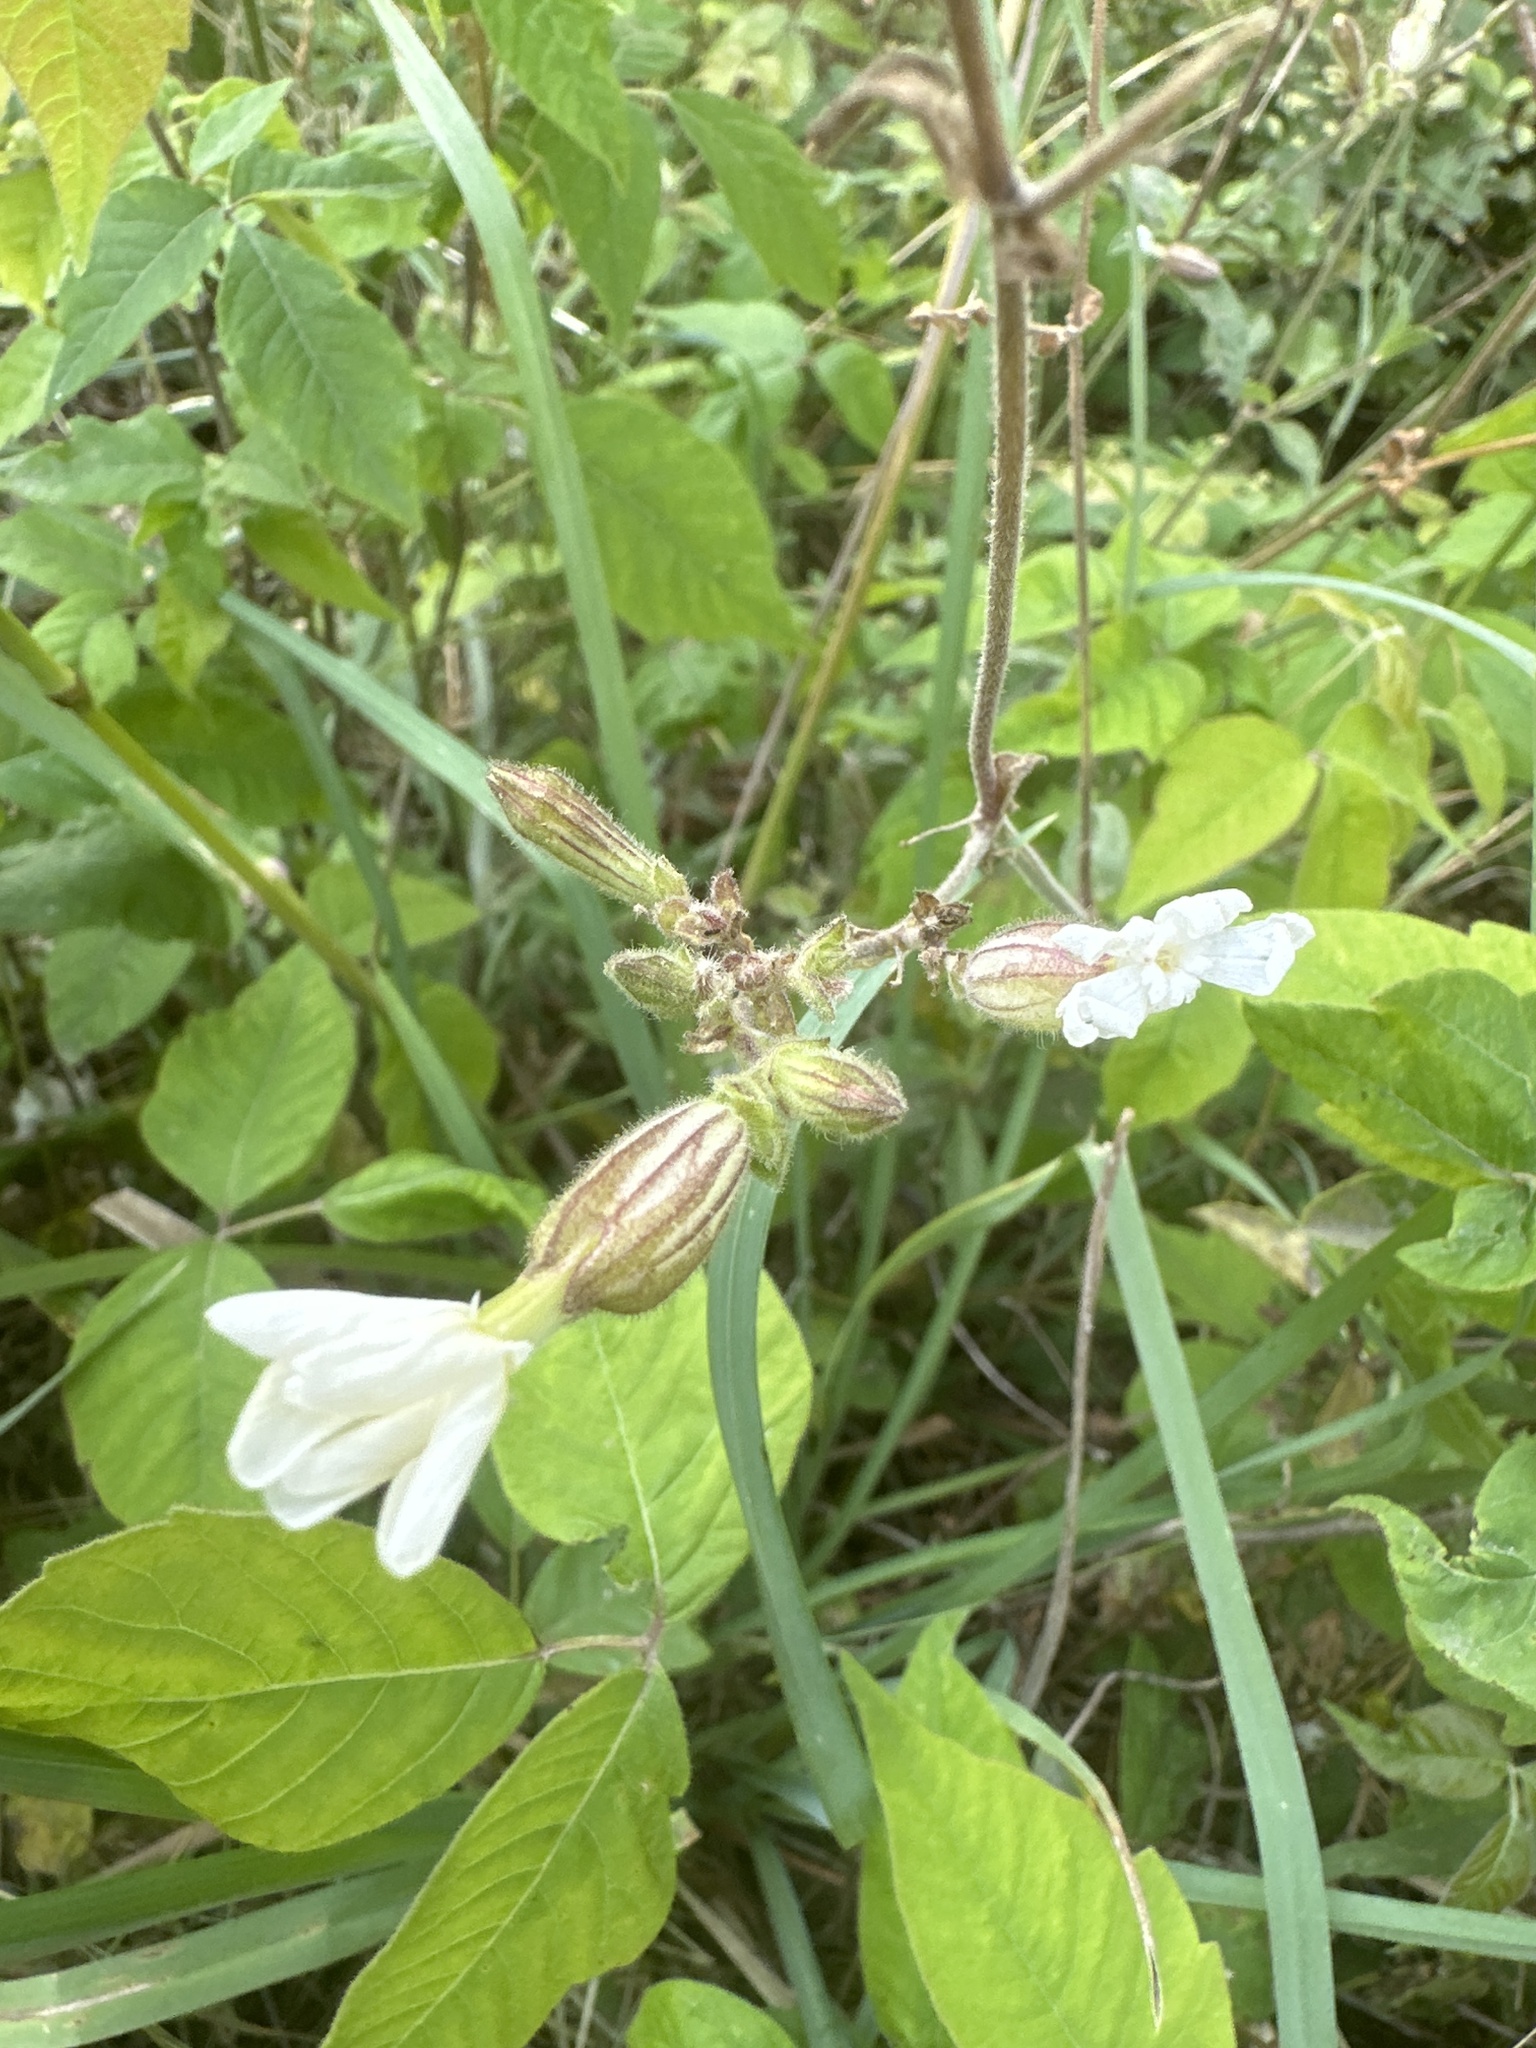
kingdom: Plantae
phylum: Tracheophyta
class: Magnoliopsida
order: Caryophyllales
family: Caryophyllaceae
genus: Silene
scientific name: Silene latifolia
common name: White campion
